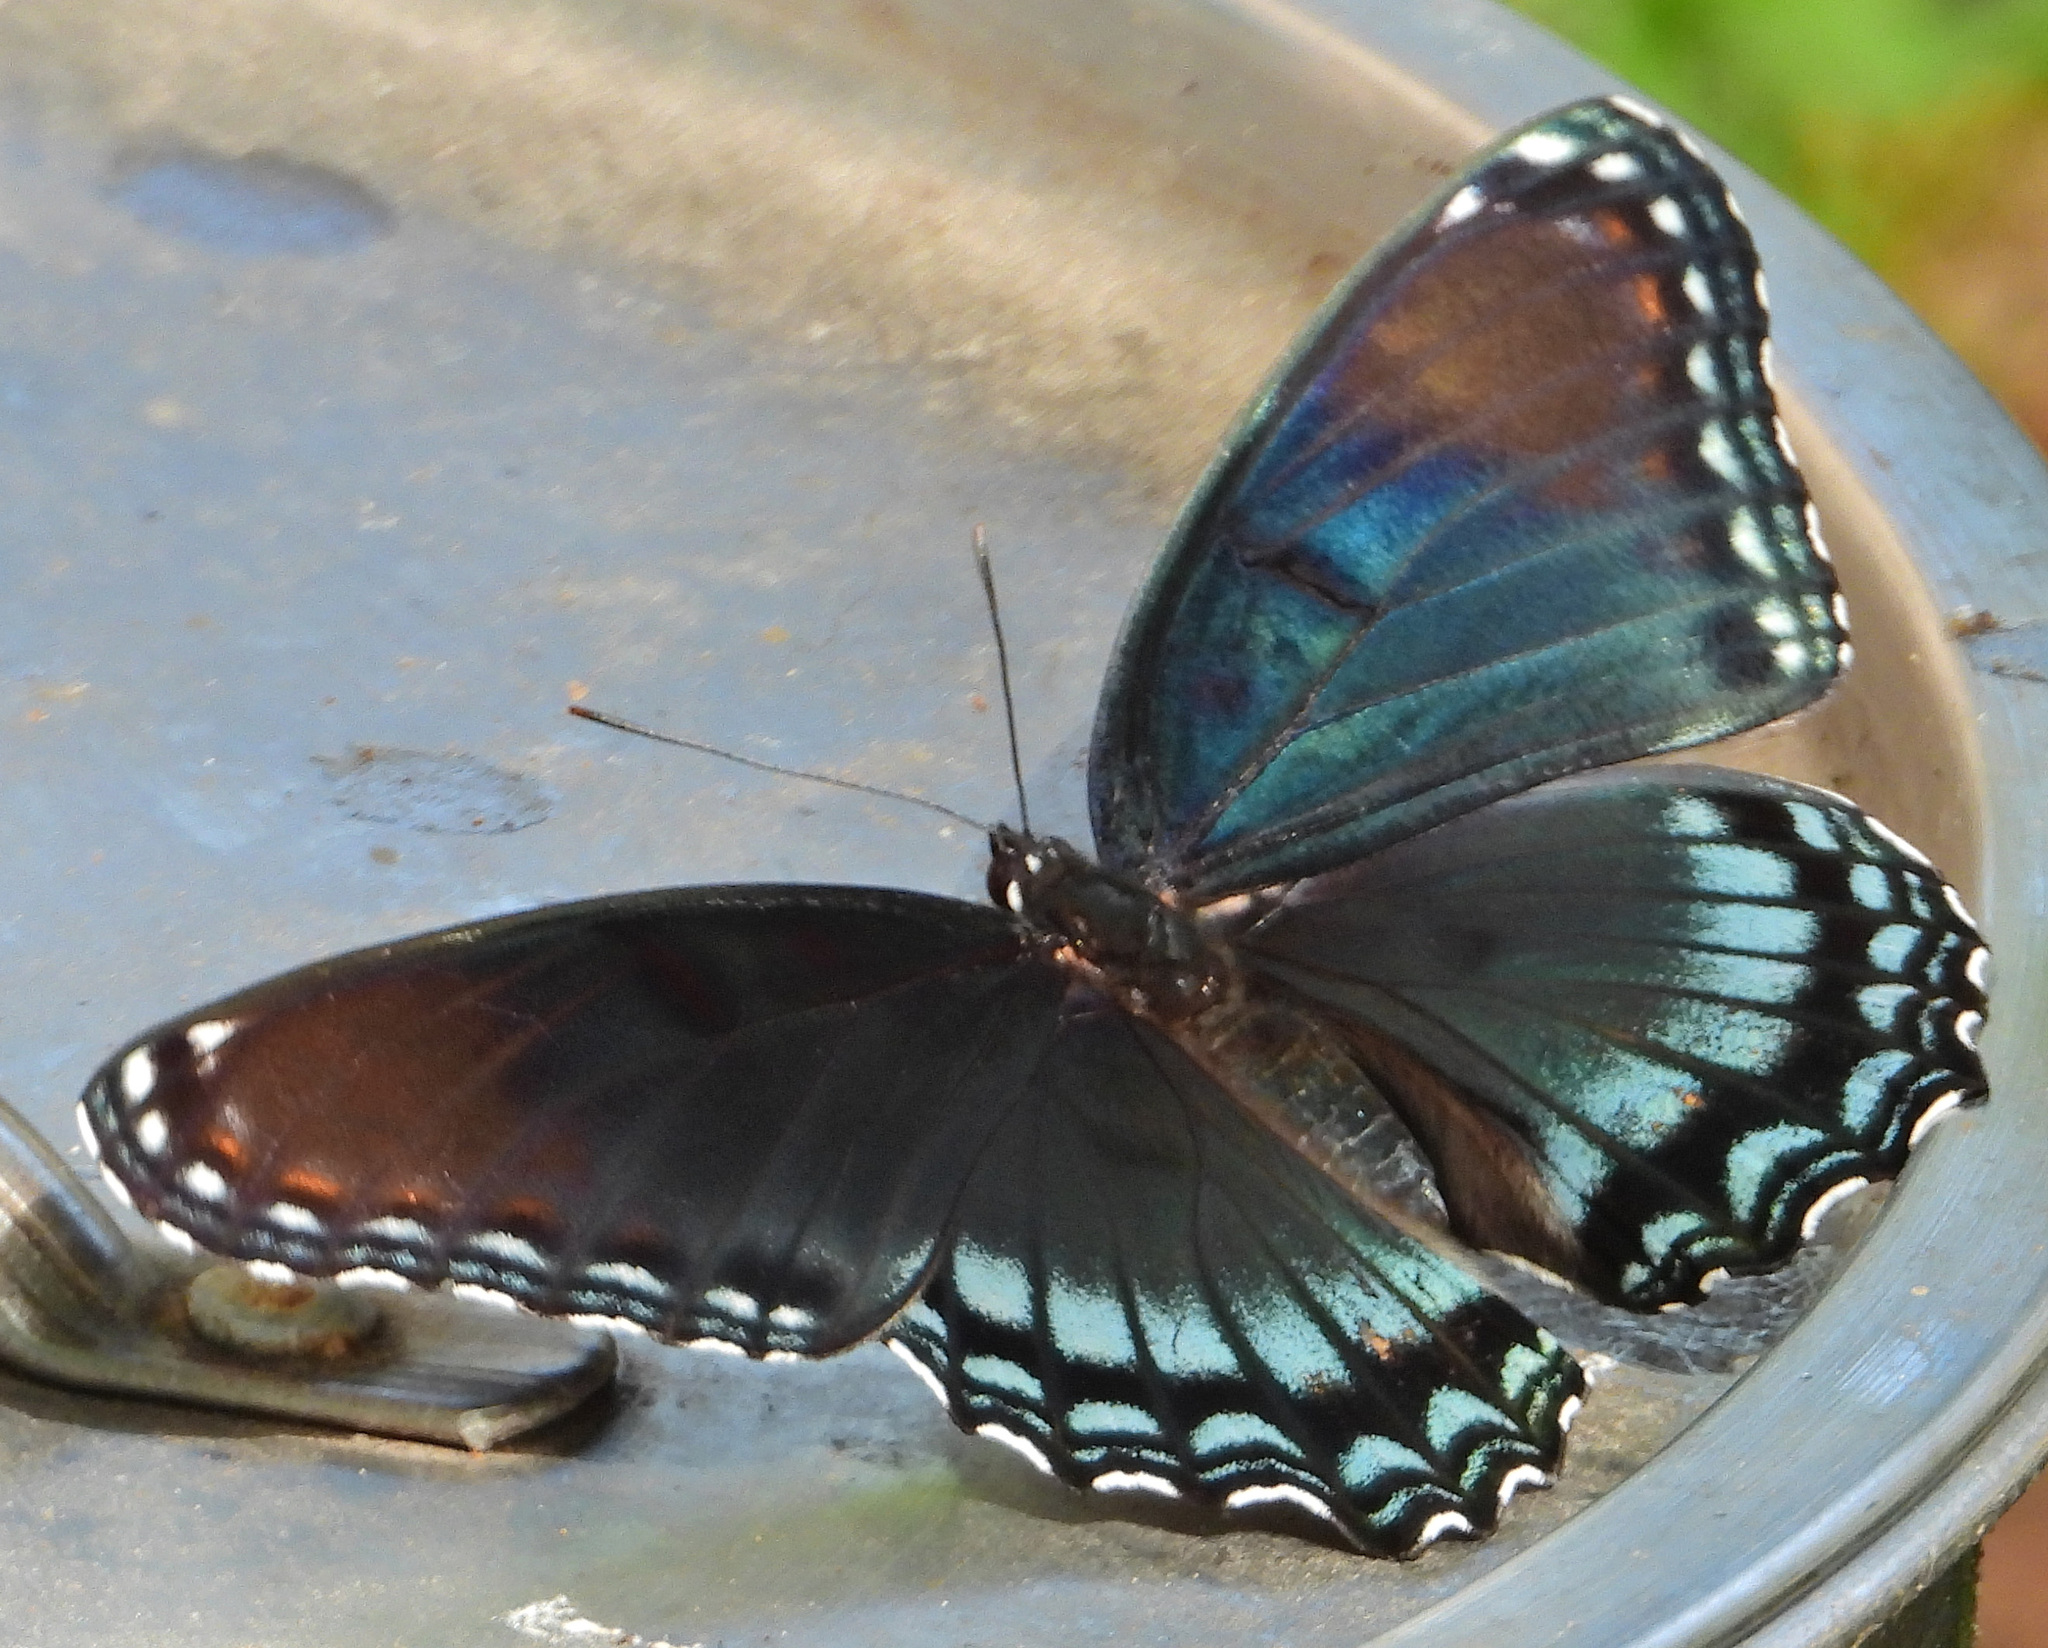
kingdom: Animalia
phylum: Arthropoda
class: Insecta
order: Lepidoptera
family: Nymphalidae
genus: Limenitis
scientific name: Limenitis astyanax
